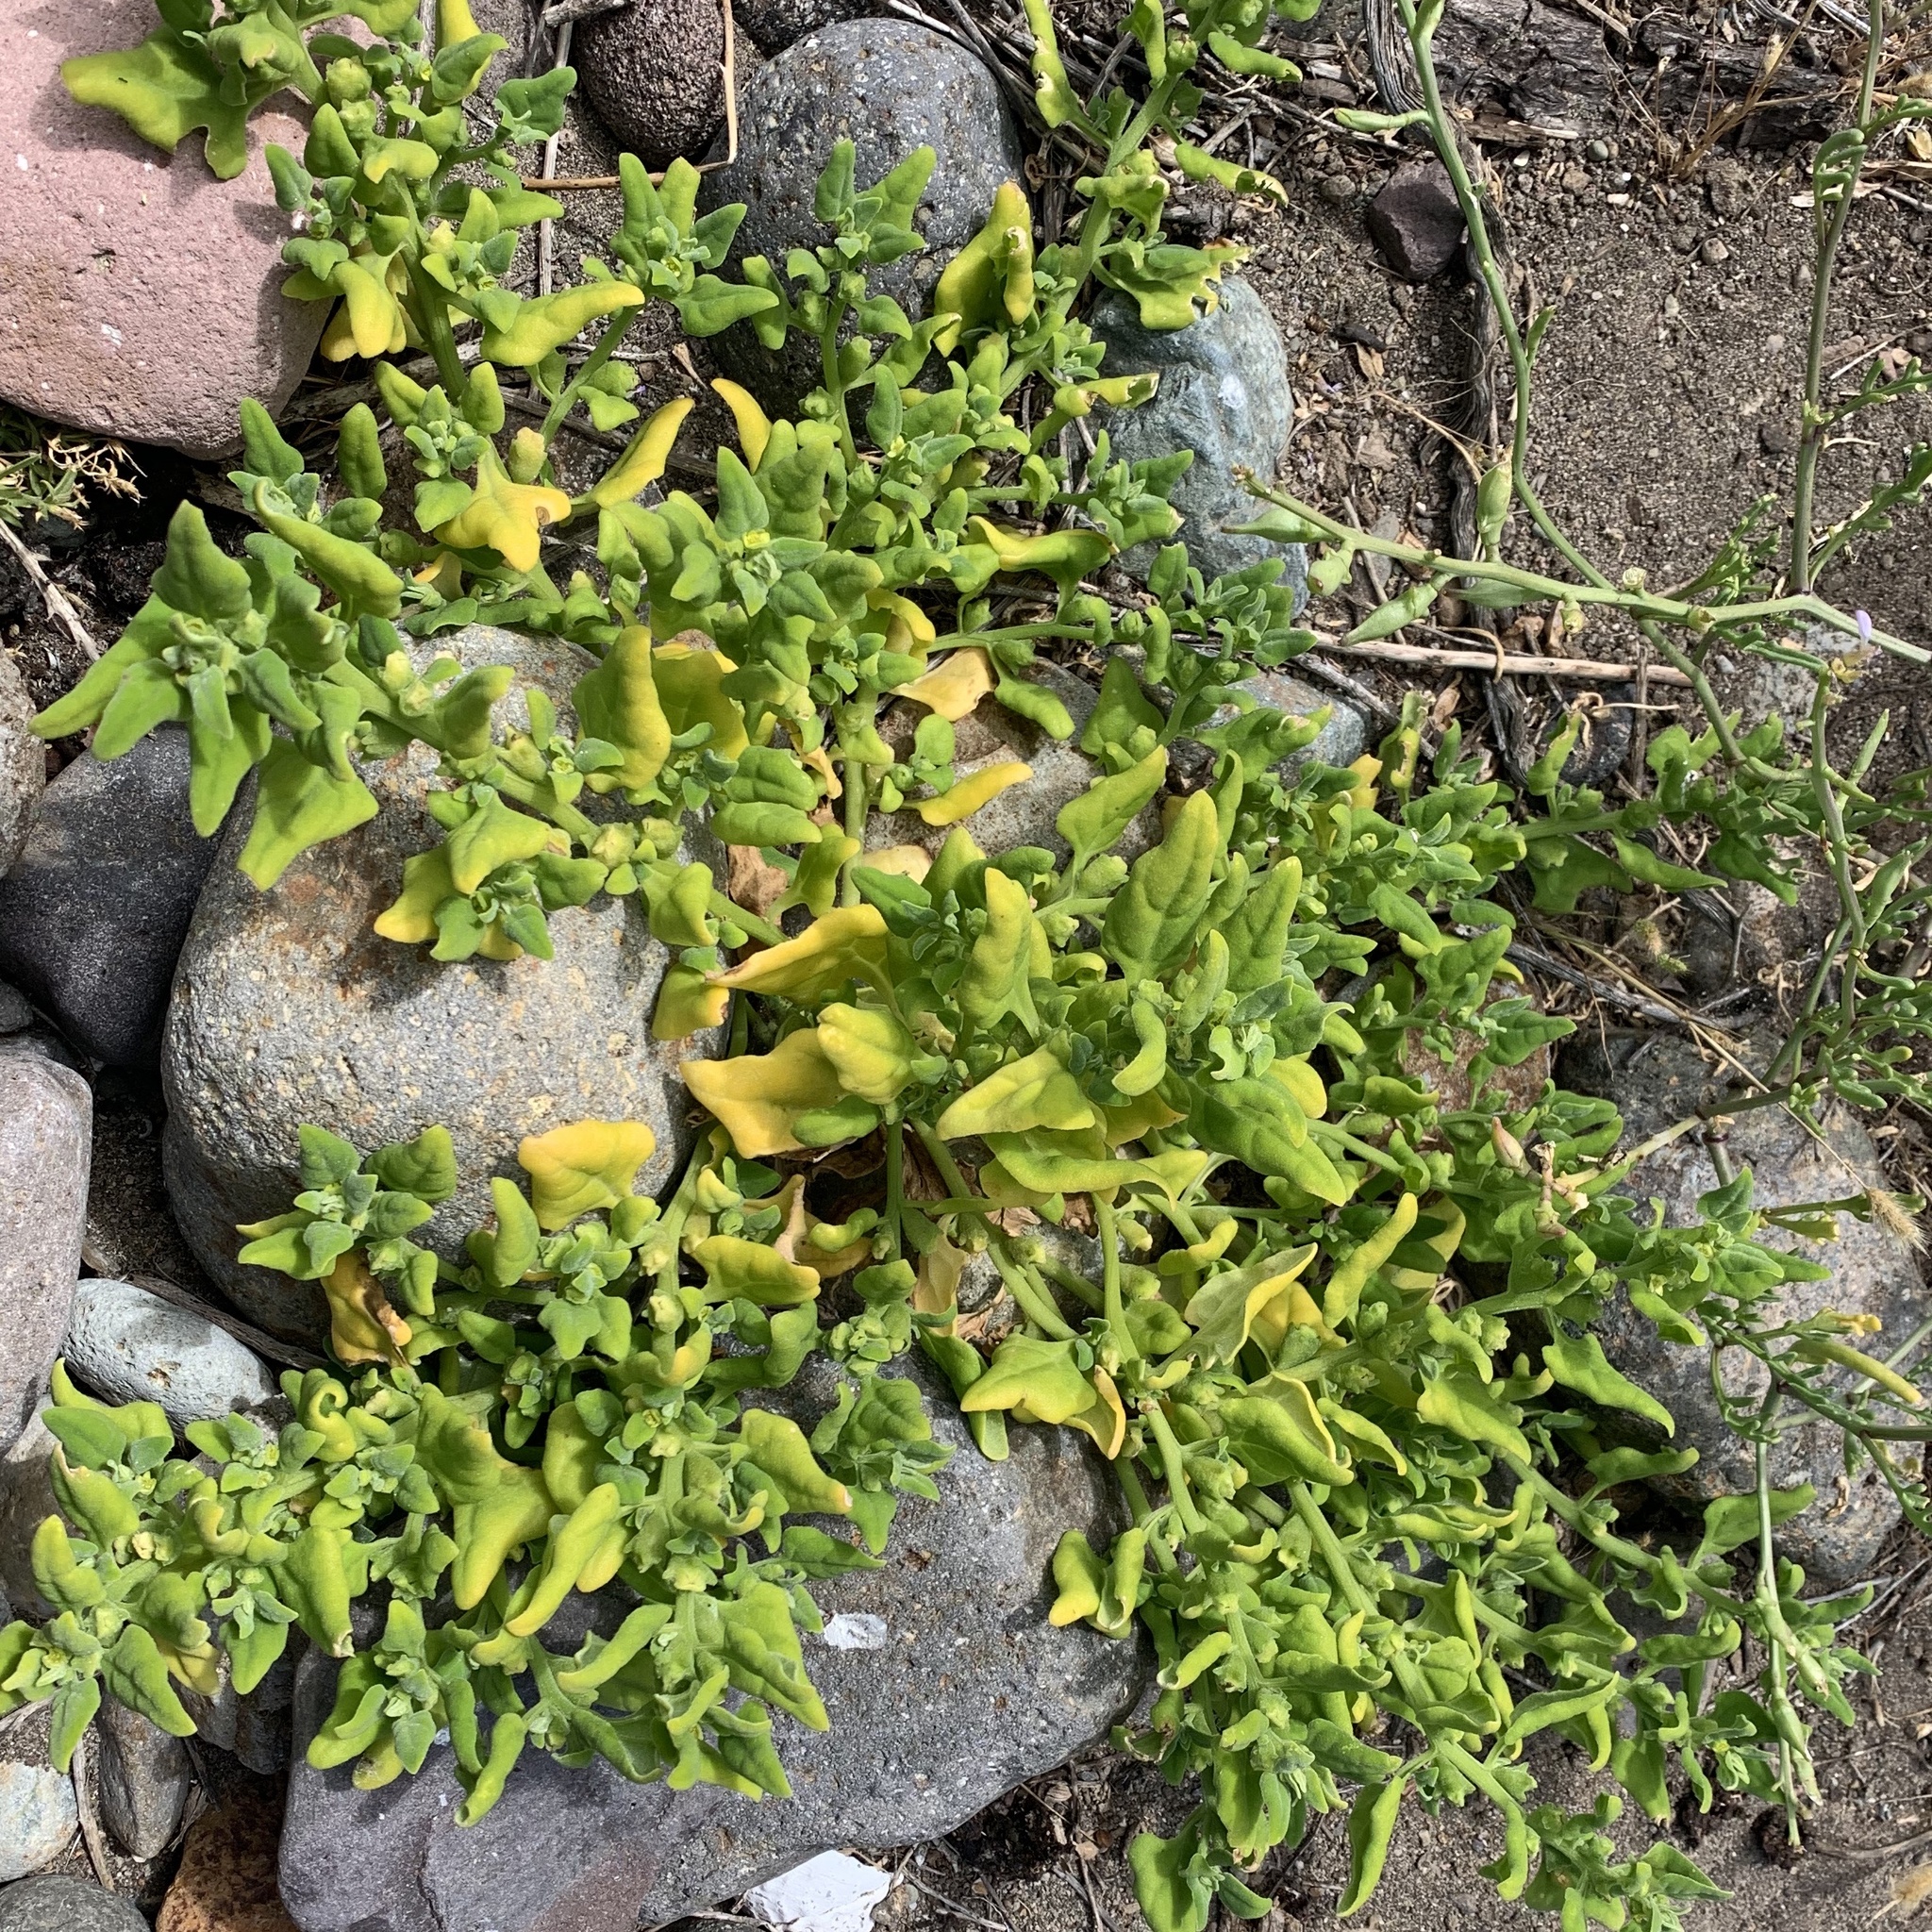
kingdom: Plantae
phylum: Tracheophyta
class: Magnoliopsida
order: Caryophyllales
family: Aizoaceae
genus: Tetragonia
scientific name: Tetragonia tetragonoides
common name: New zealand-spinach
